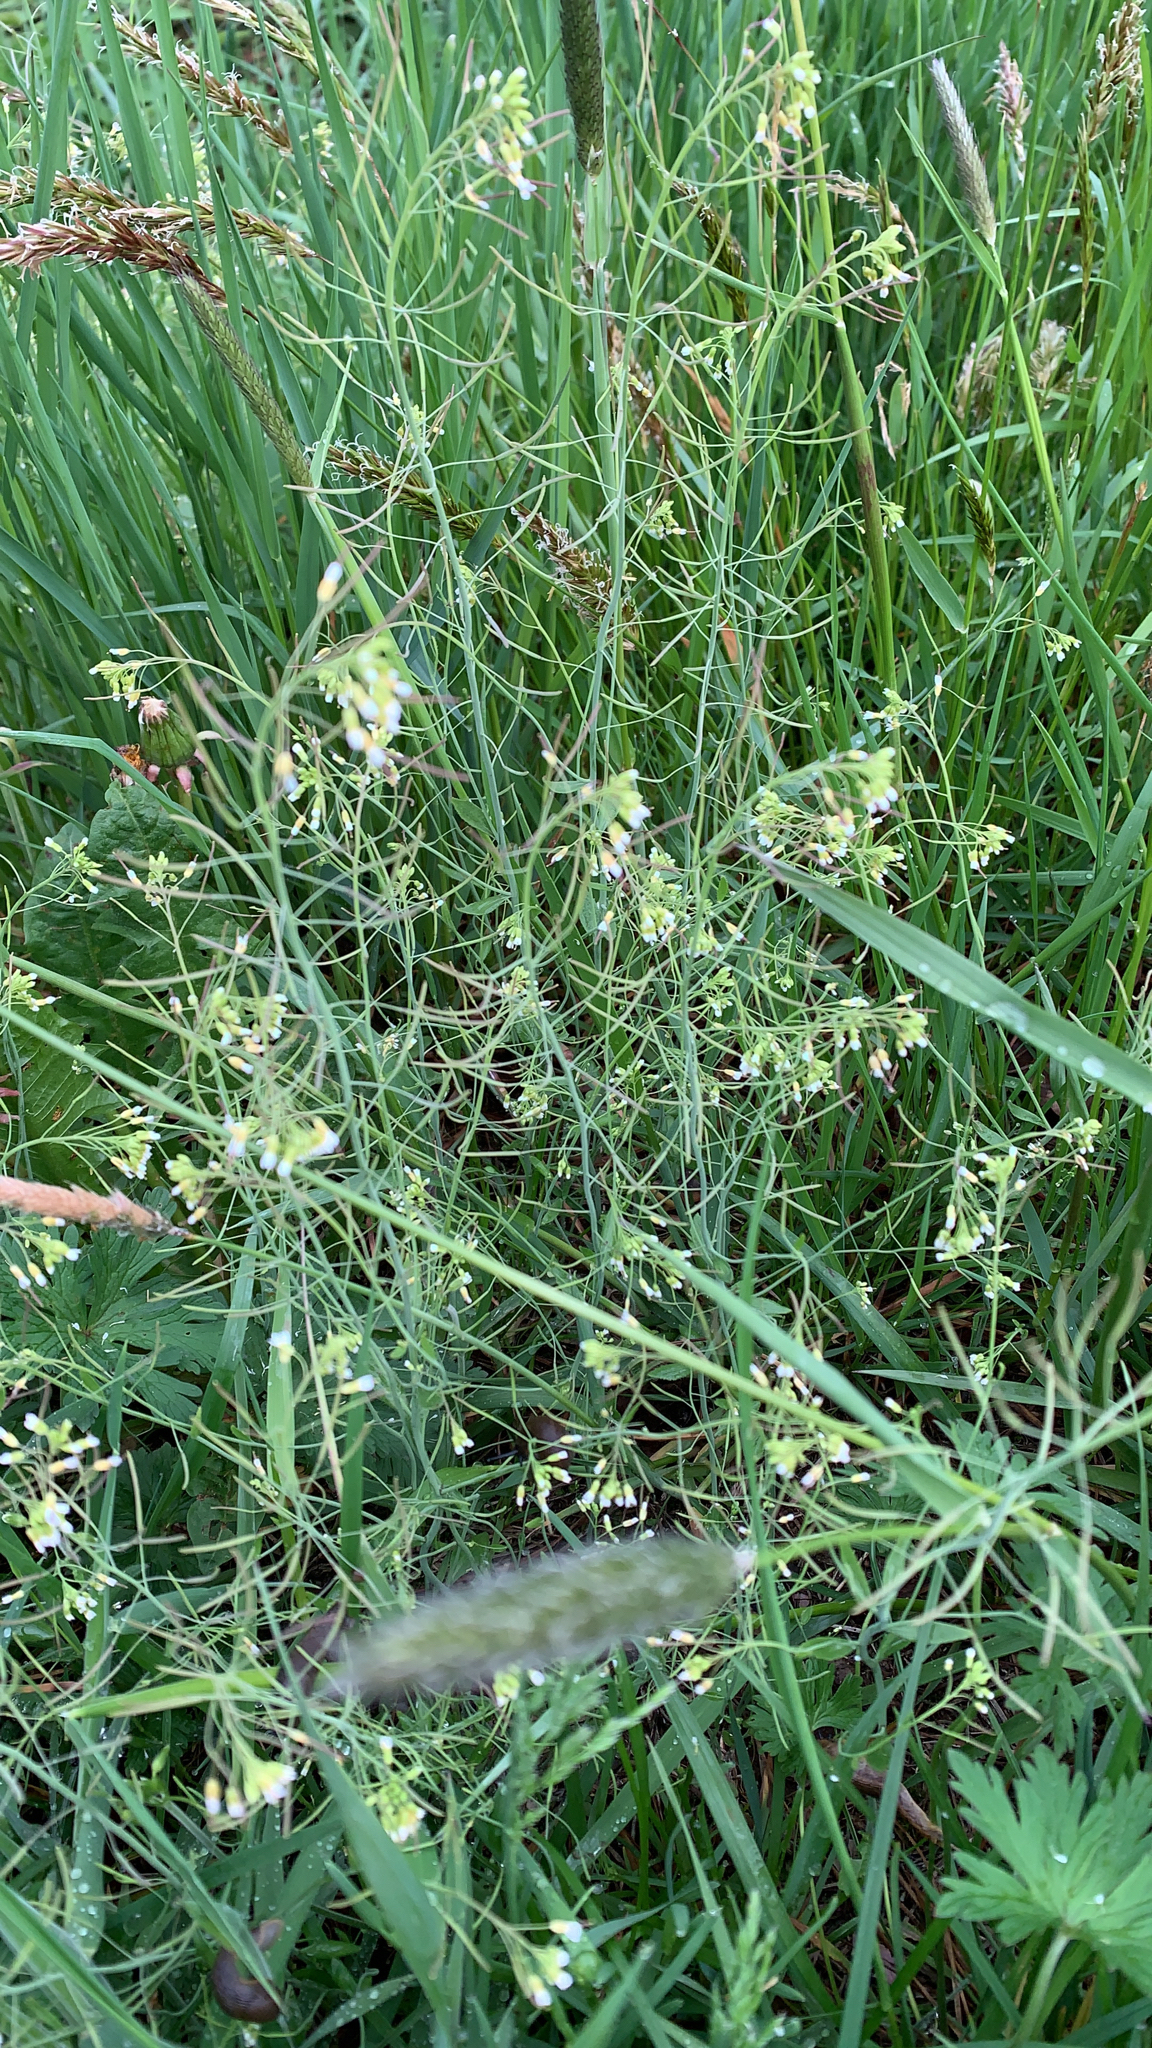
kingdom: Plantae
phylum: Tracheophyta
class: Magnoliopsida
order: Brassicales
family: Brassicaceae
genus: Arabidopsis
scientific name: Arabidopsis thaliana
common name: Thale cress
